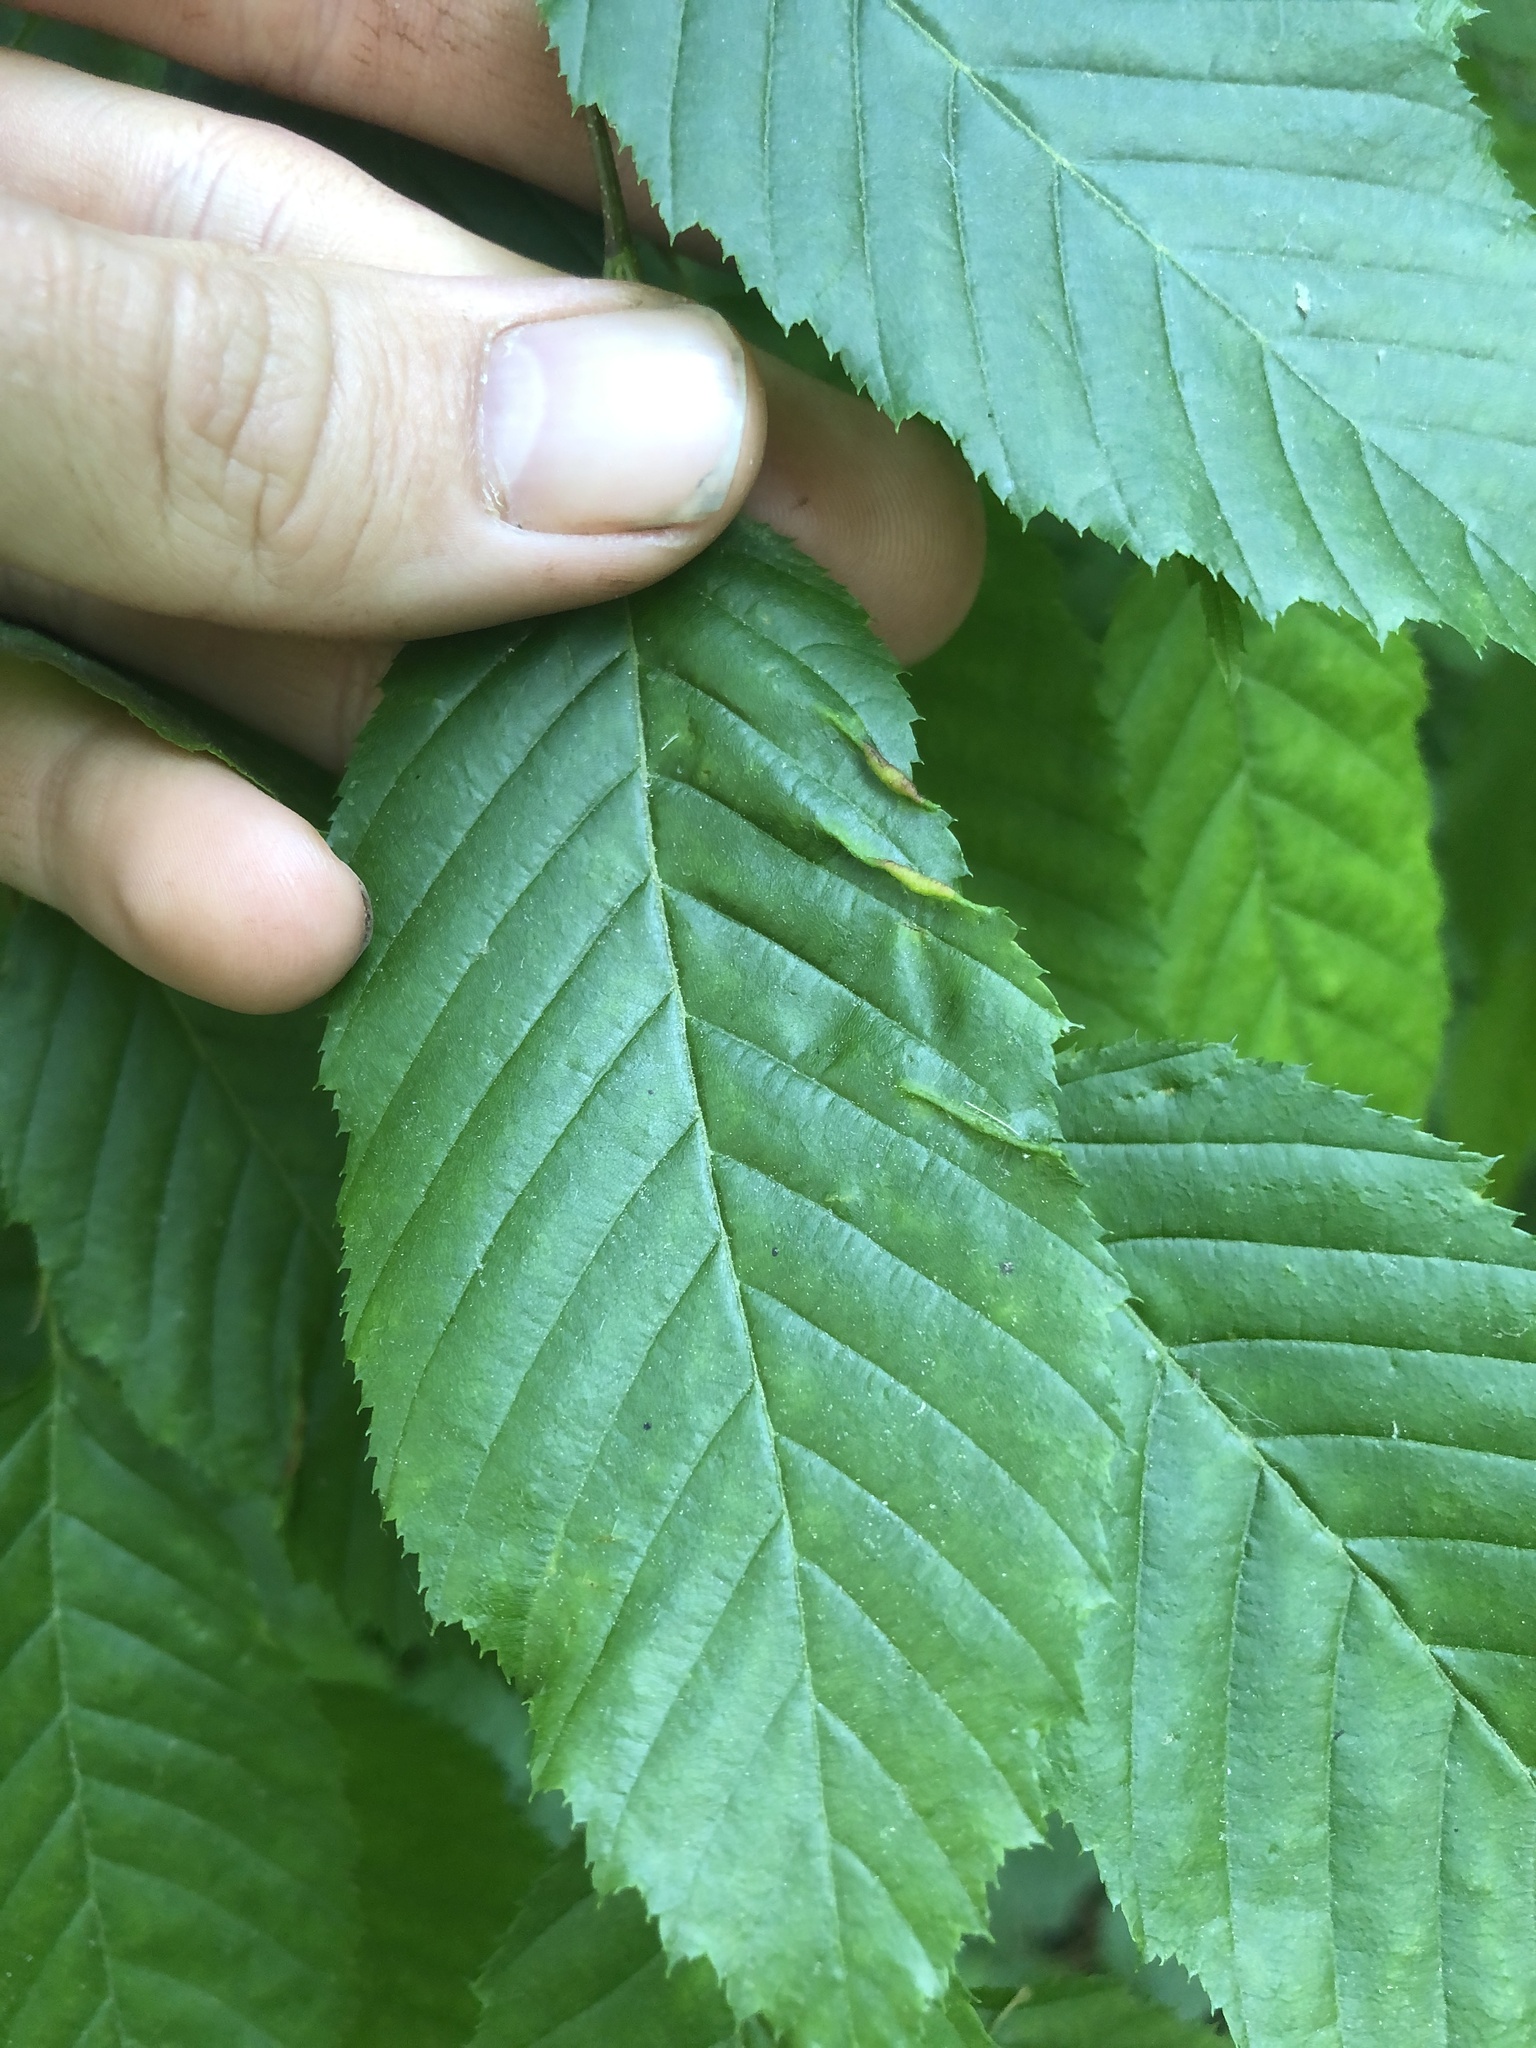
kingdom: Animalia
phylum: Arthropoda
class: Insecta
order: Diptera
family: Cecidomyiidae
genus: Dasineura
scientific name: Dasineura pudibunda
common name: Hornbeam leaf gall midge
